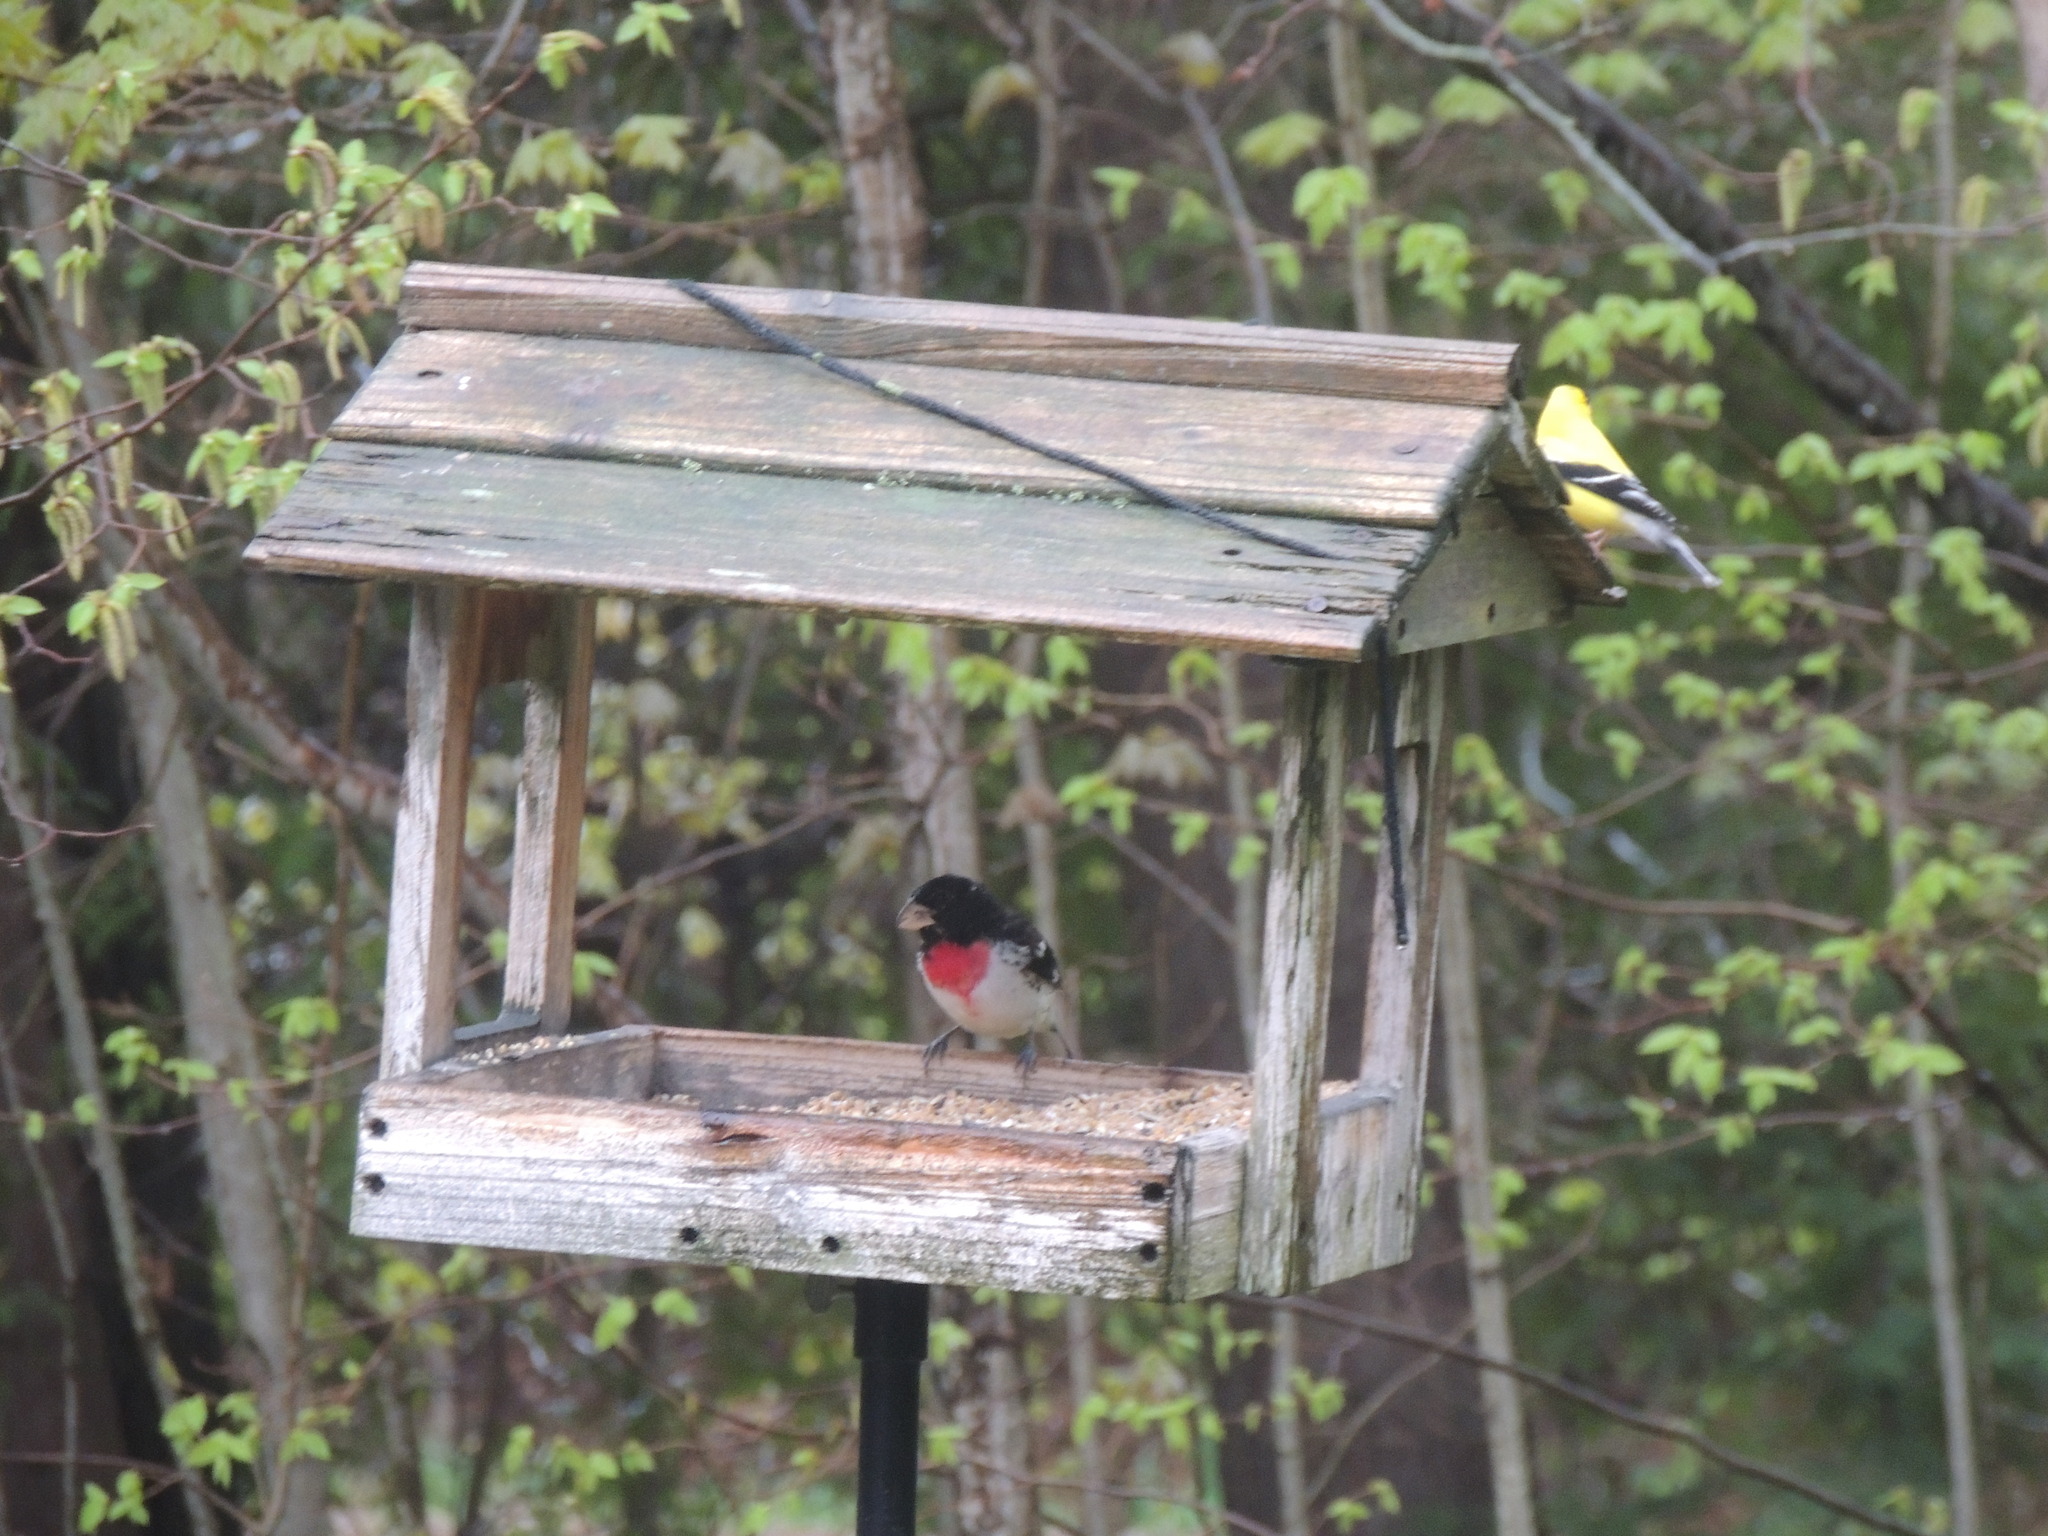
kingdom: Animalia
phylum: Chordata
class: Aves
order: Passeriformes
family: Cardinalidae
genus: Pheucticus
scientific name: Pheucticus ludovicianus
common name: Rose-breasted grosbeak
